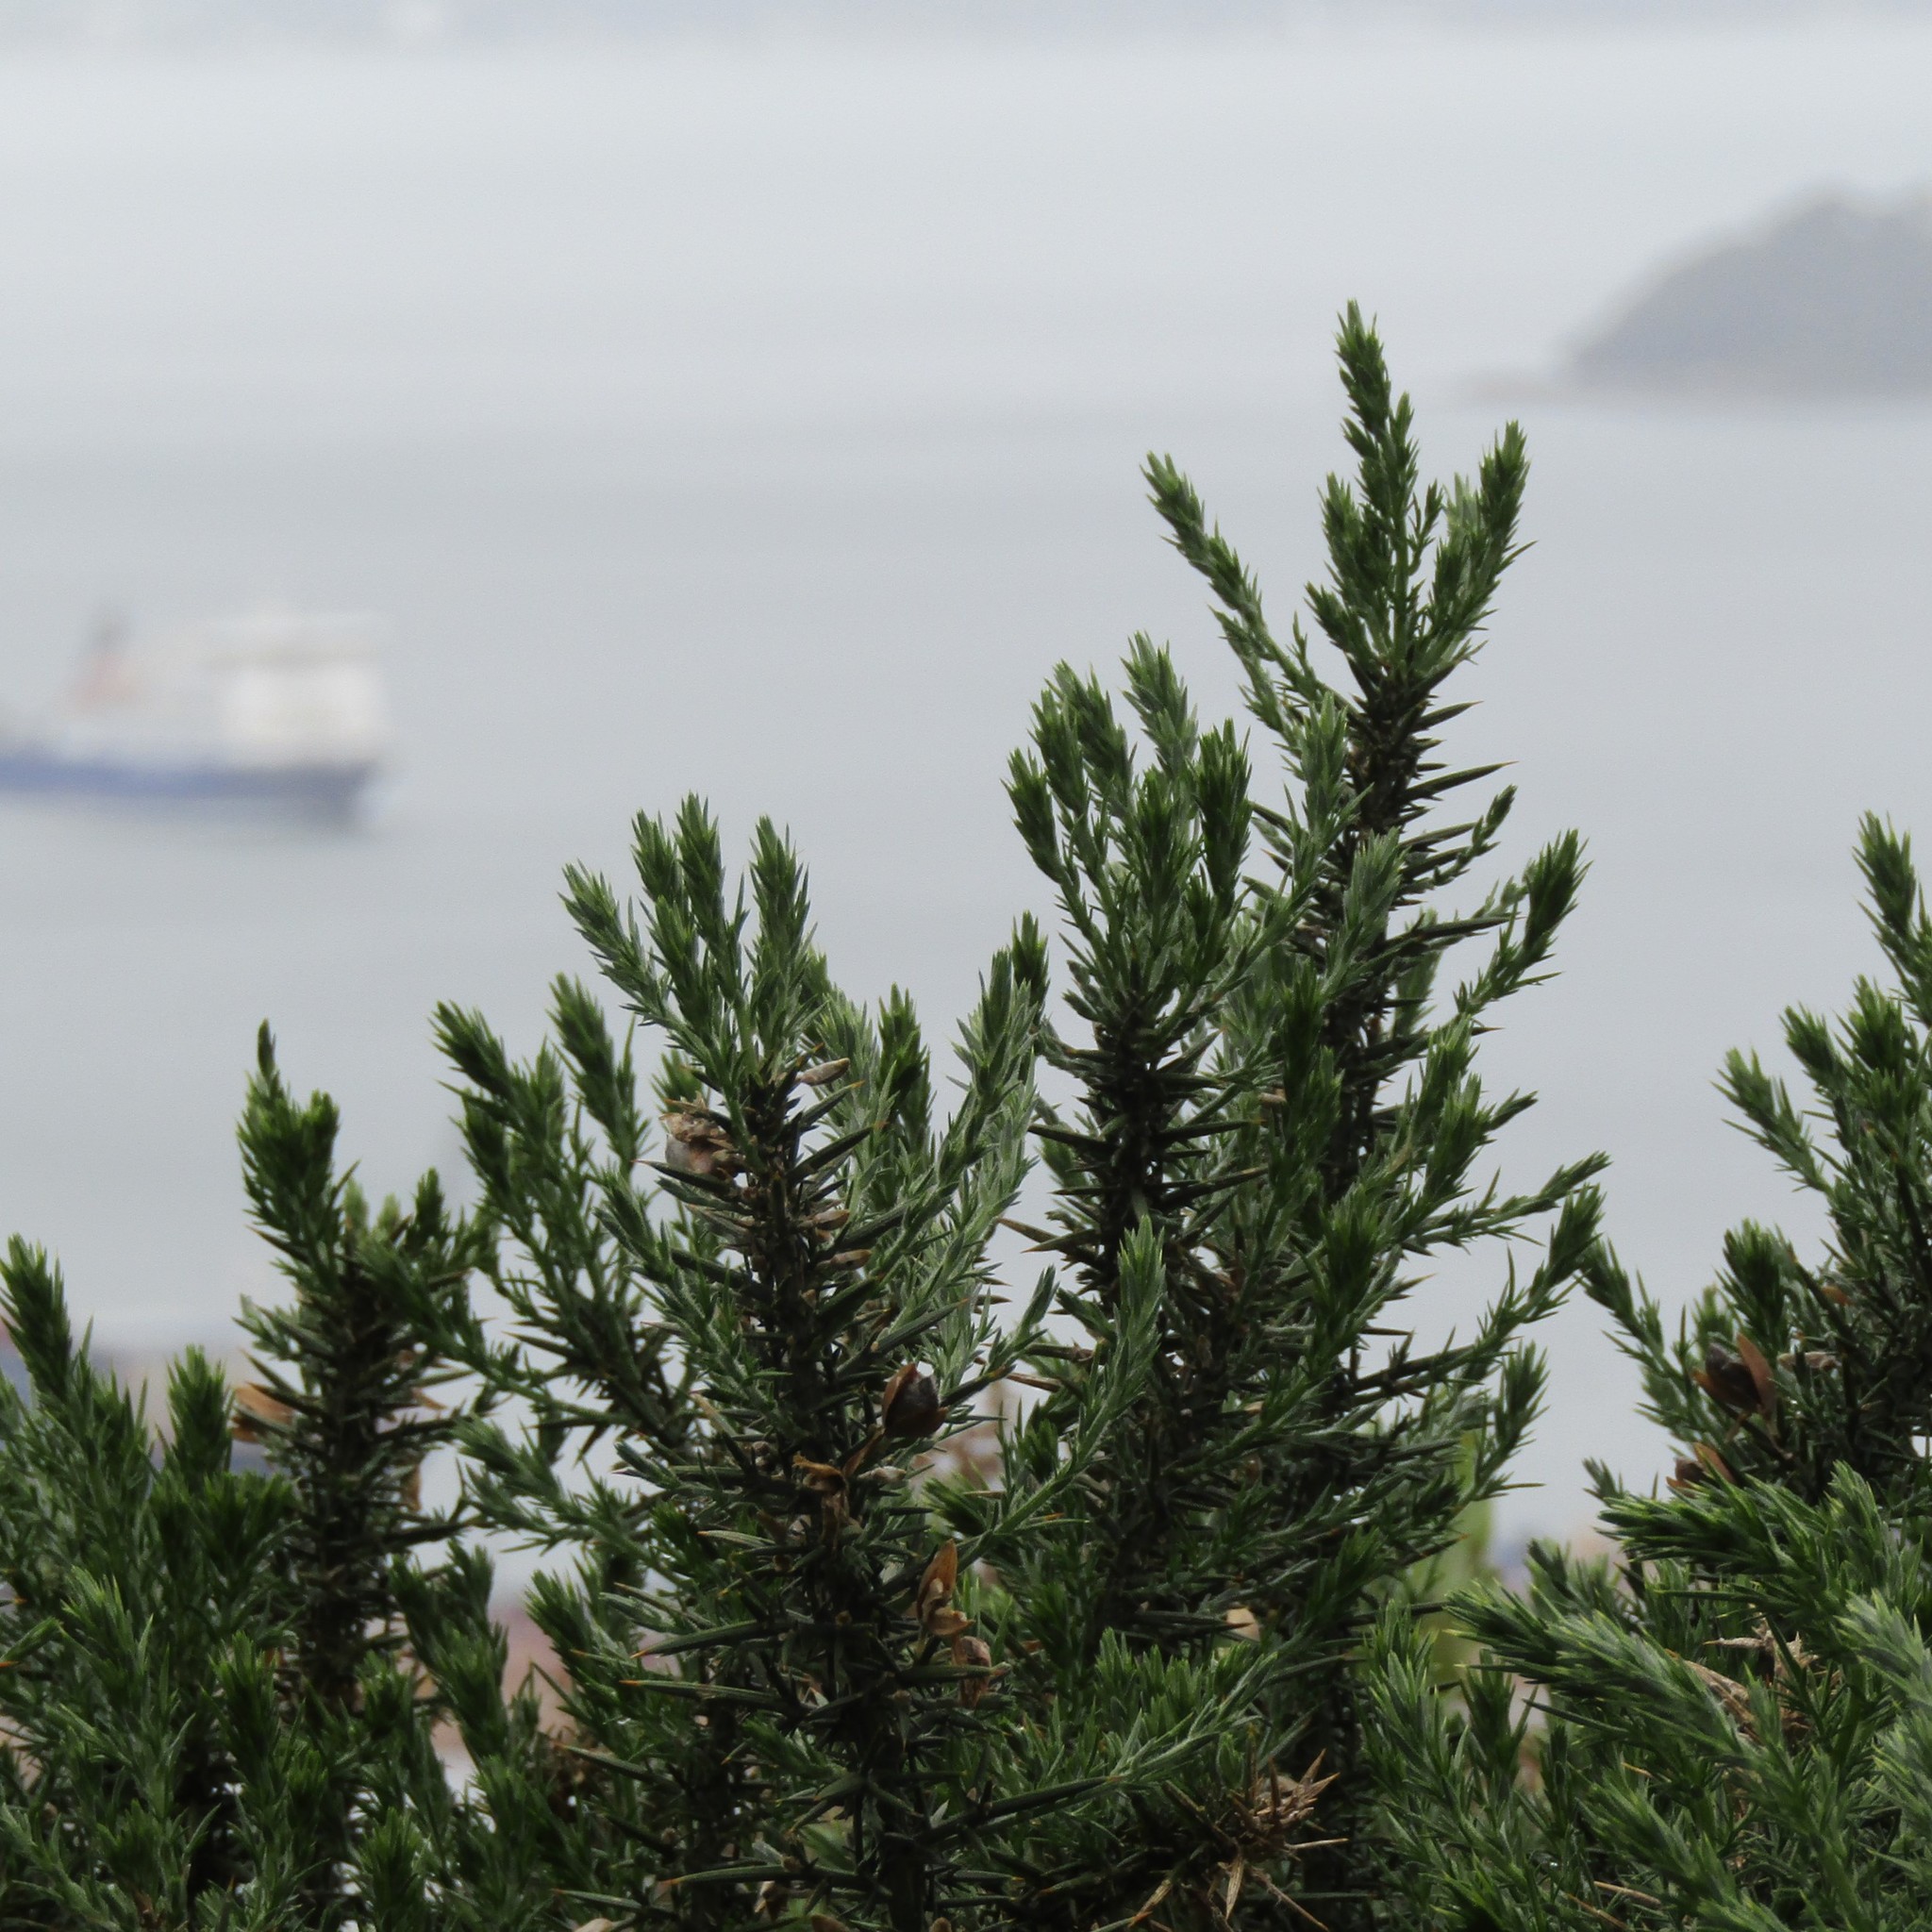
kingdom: Plantae
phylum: Tracheophyta
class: Magnoliopsida
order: Fabales
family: Fabaceae
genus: Ulex
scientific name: Ulex europaeus
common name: Common gorse
